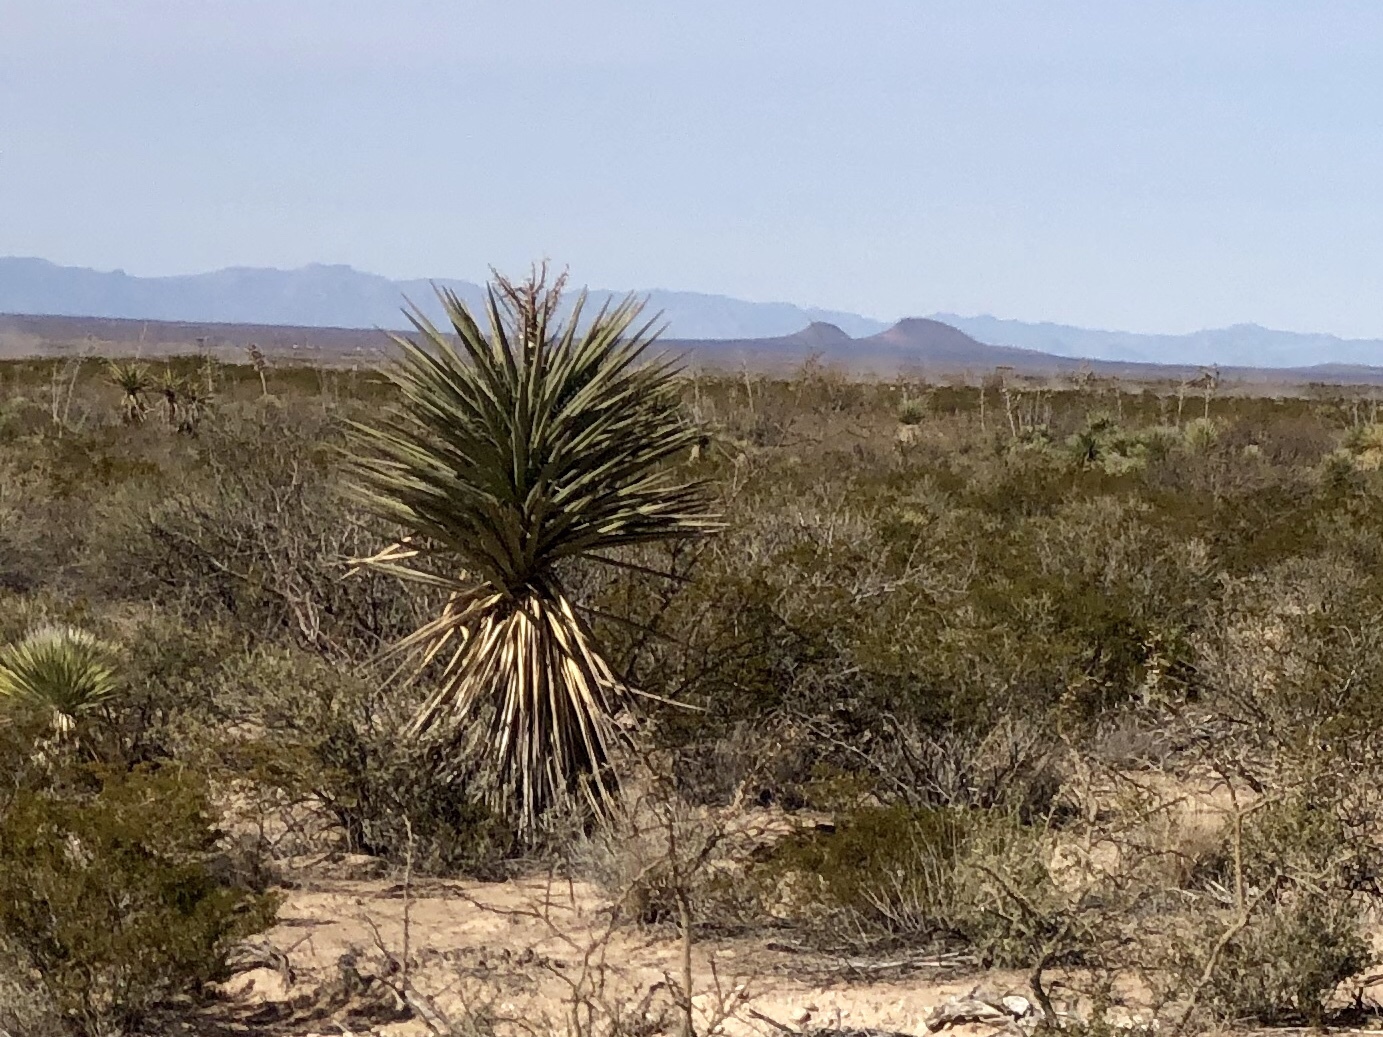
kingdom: Plantae
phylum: Tracheophyta
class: Liliopsida
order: Asparagales
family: Asparagaceae
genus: Yucca
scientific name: Yucca treculiana
